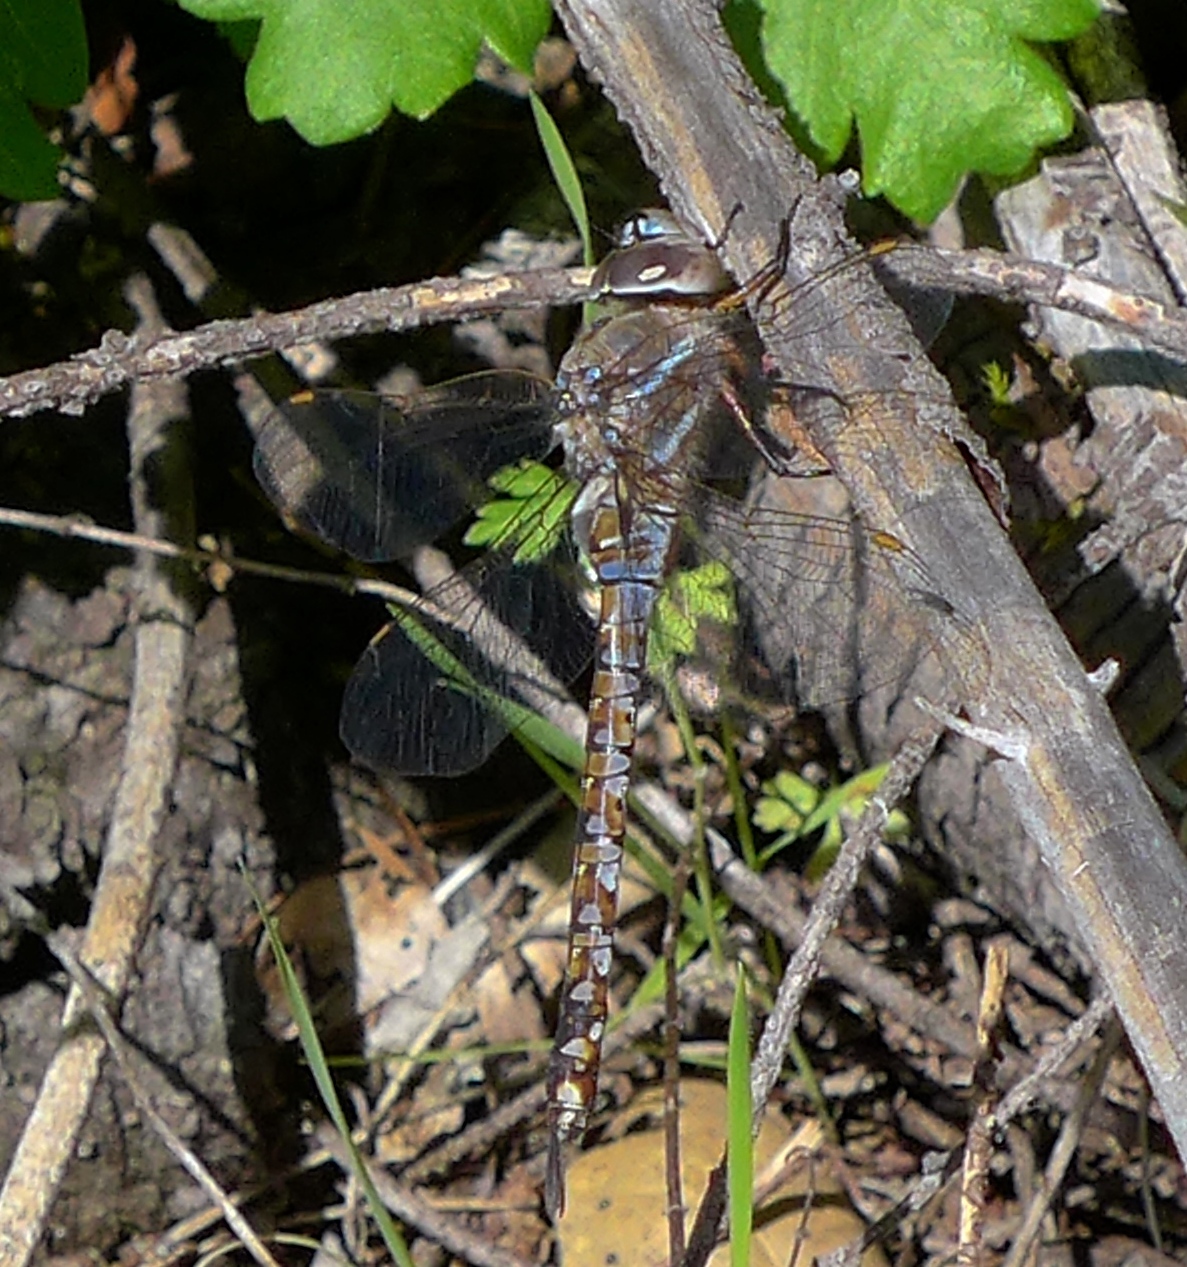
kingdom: Animalia
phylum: Arthropoda
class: Insecta
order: Odonata
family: Aeshnidae
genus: Rhionaeschna
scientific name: Rhionaeschna multicolor
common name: Blue-eyed darner
